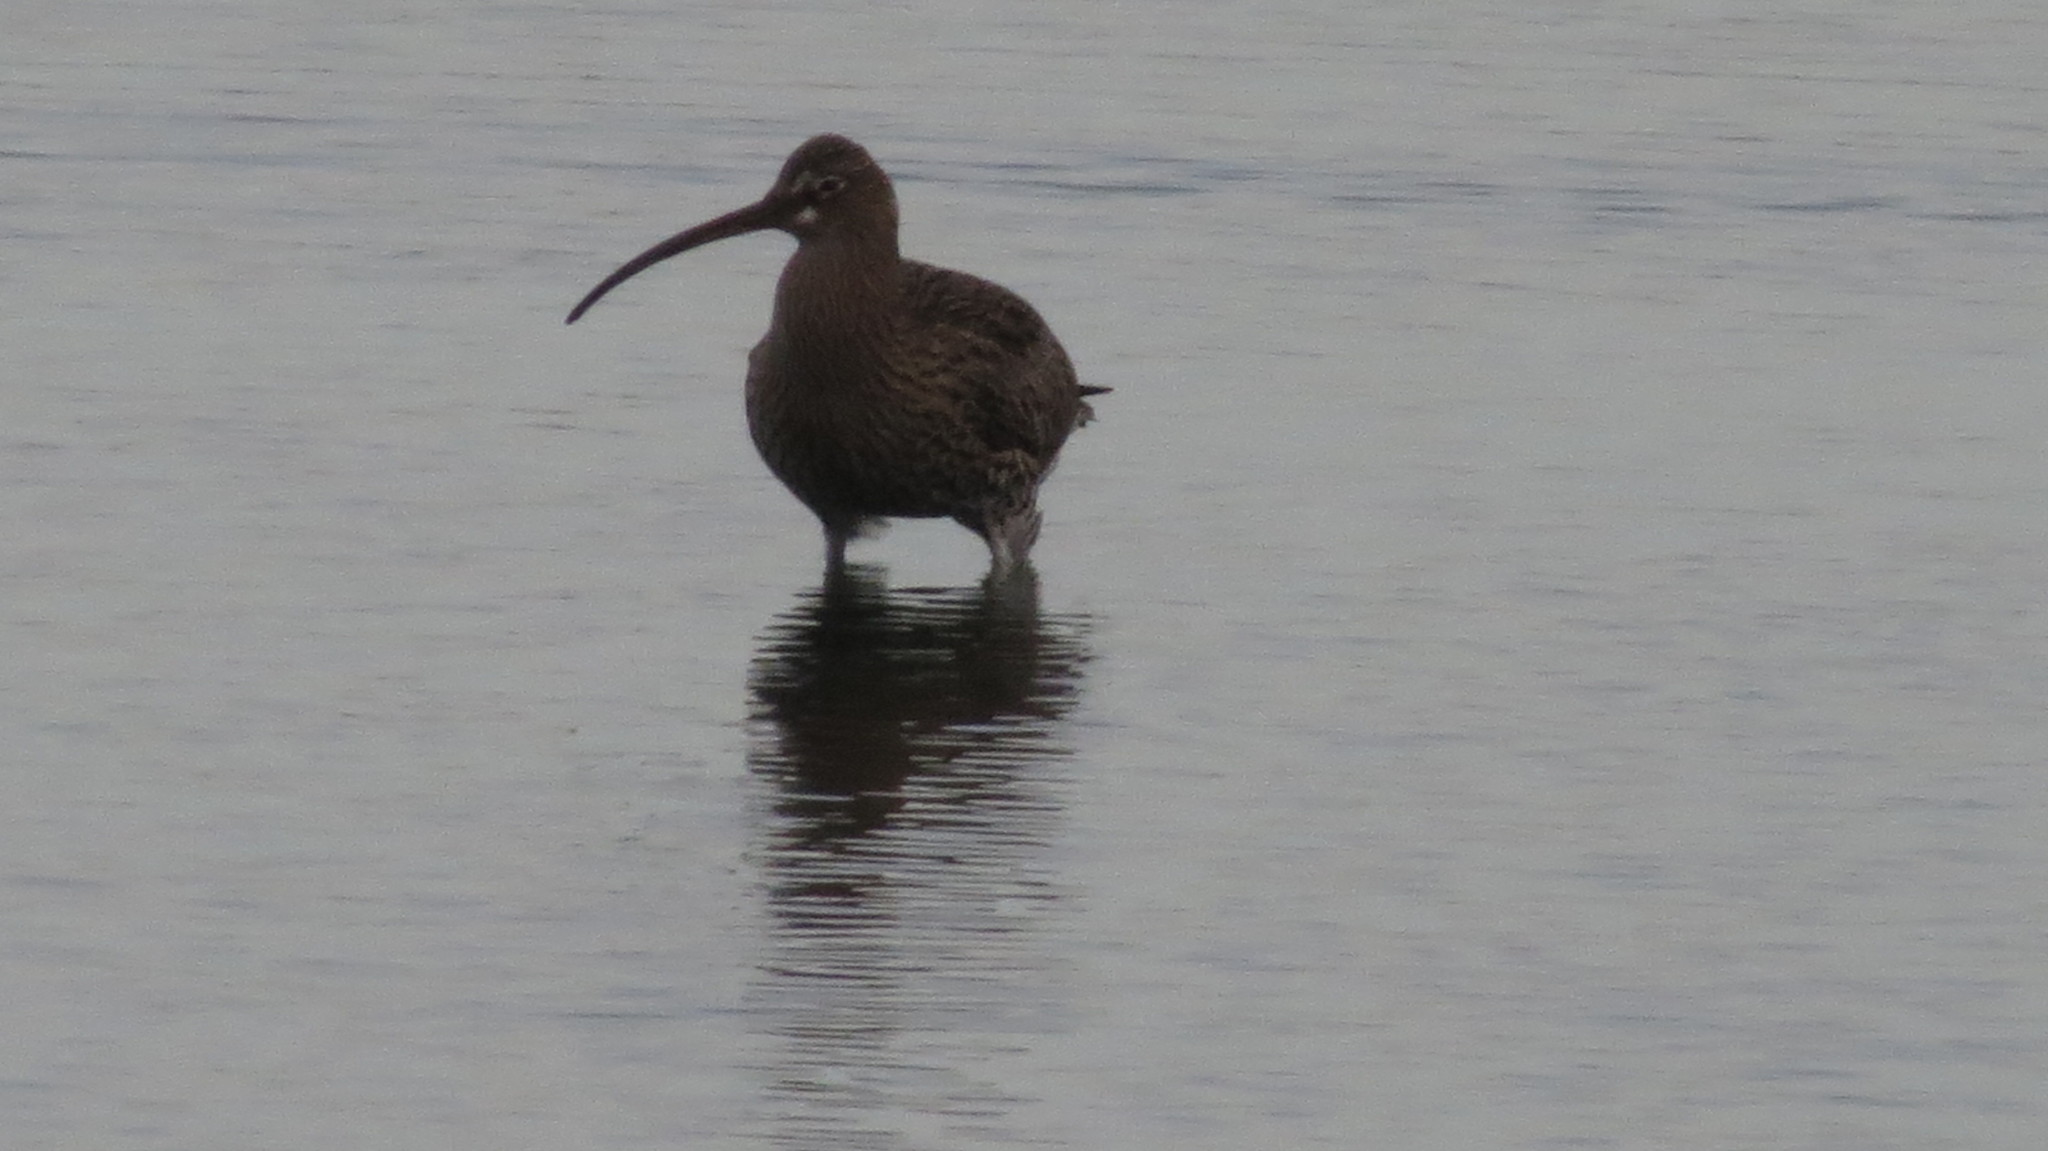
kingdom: Animalia
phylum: Chordata
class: Aves
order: Charadriiformes
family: Scolopacidae
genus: Numenius
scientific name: Numenius arquata
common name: Eurasian curlew
